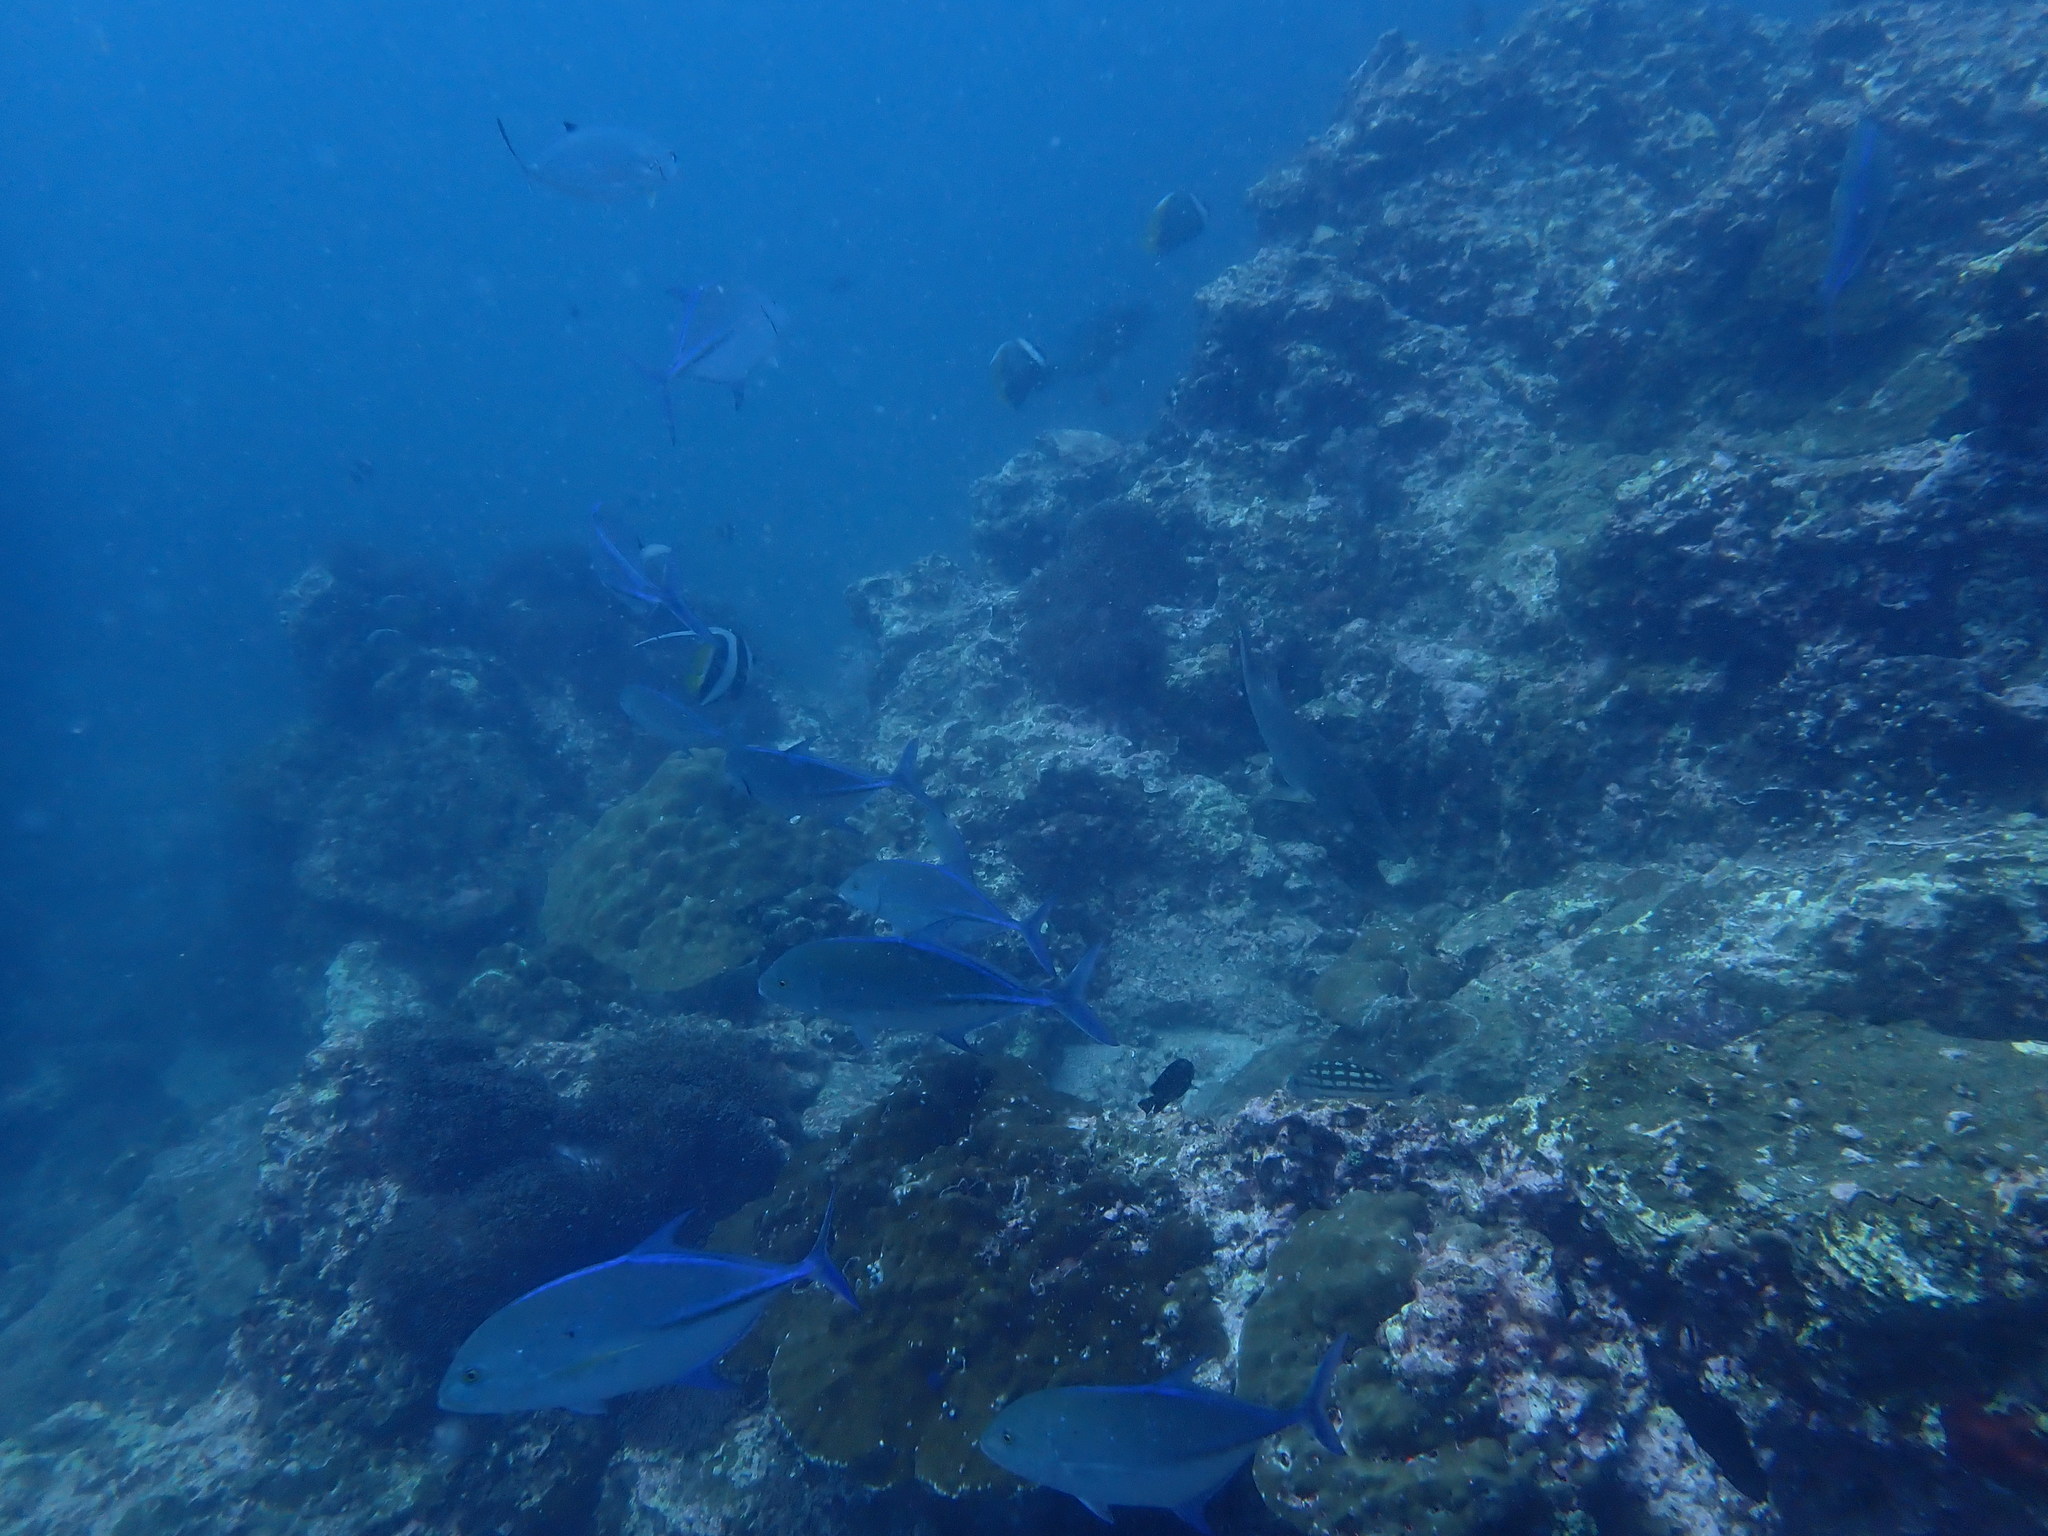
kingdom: Animalia
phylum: Chordata
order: Perciformes
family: Carangidae
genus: Caranx
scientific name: Caranx melampygus
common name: Bluefin trevally
